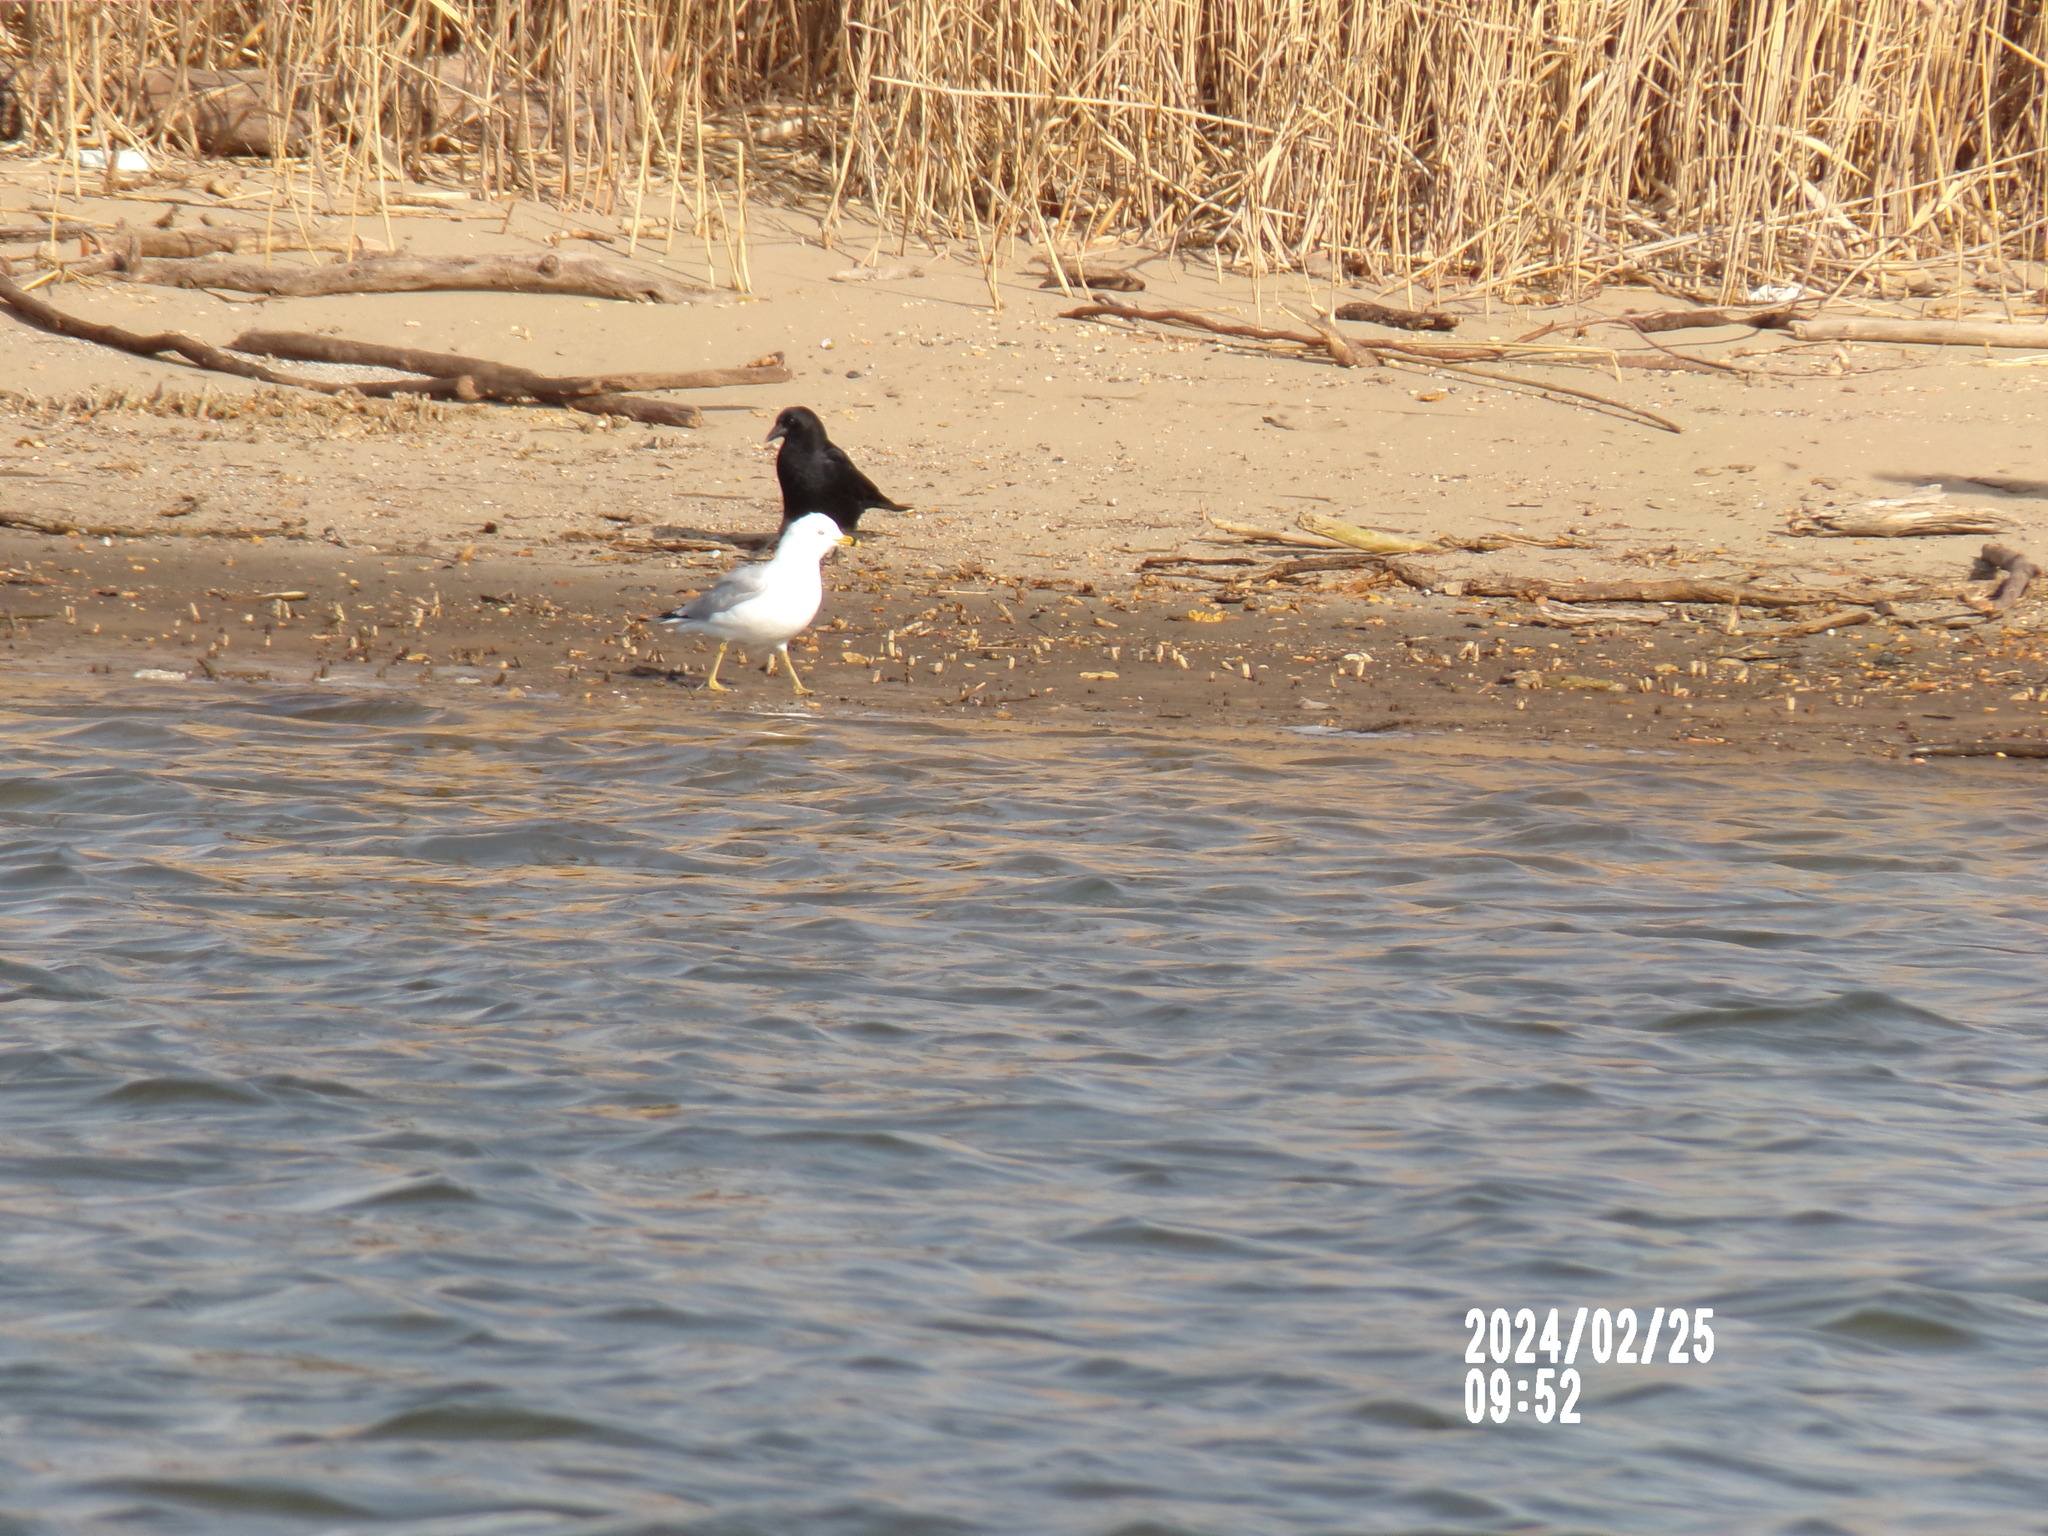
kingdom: Animalia
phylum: Chordata
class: Aves
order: Charadriiformes
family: Laridae
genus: Larus
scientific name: Larus delawarensis
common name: Ring-billed gull
